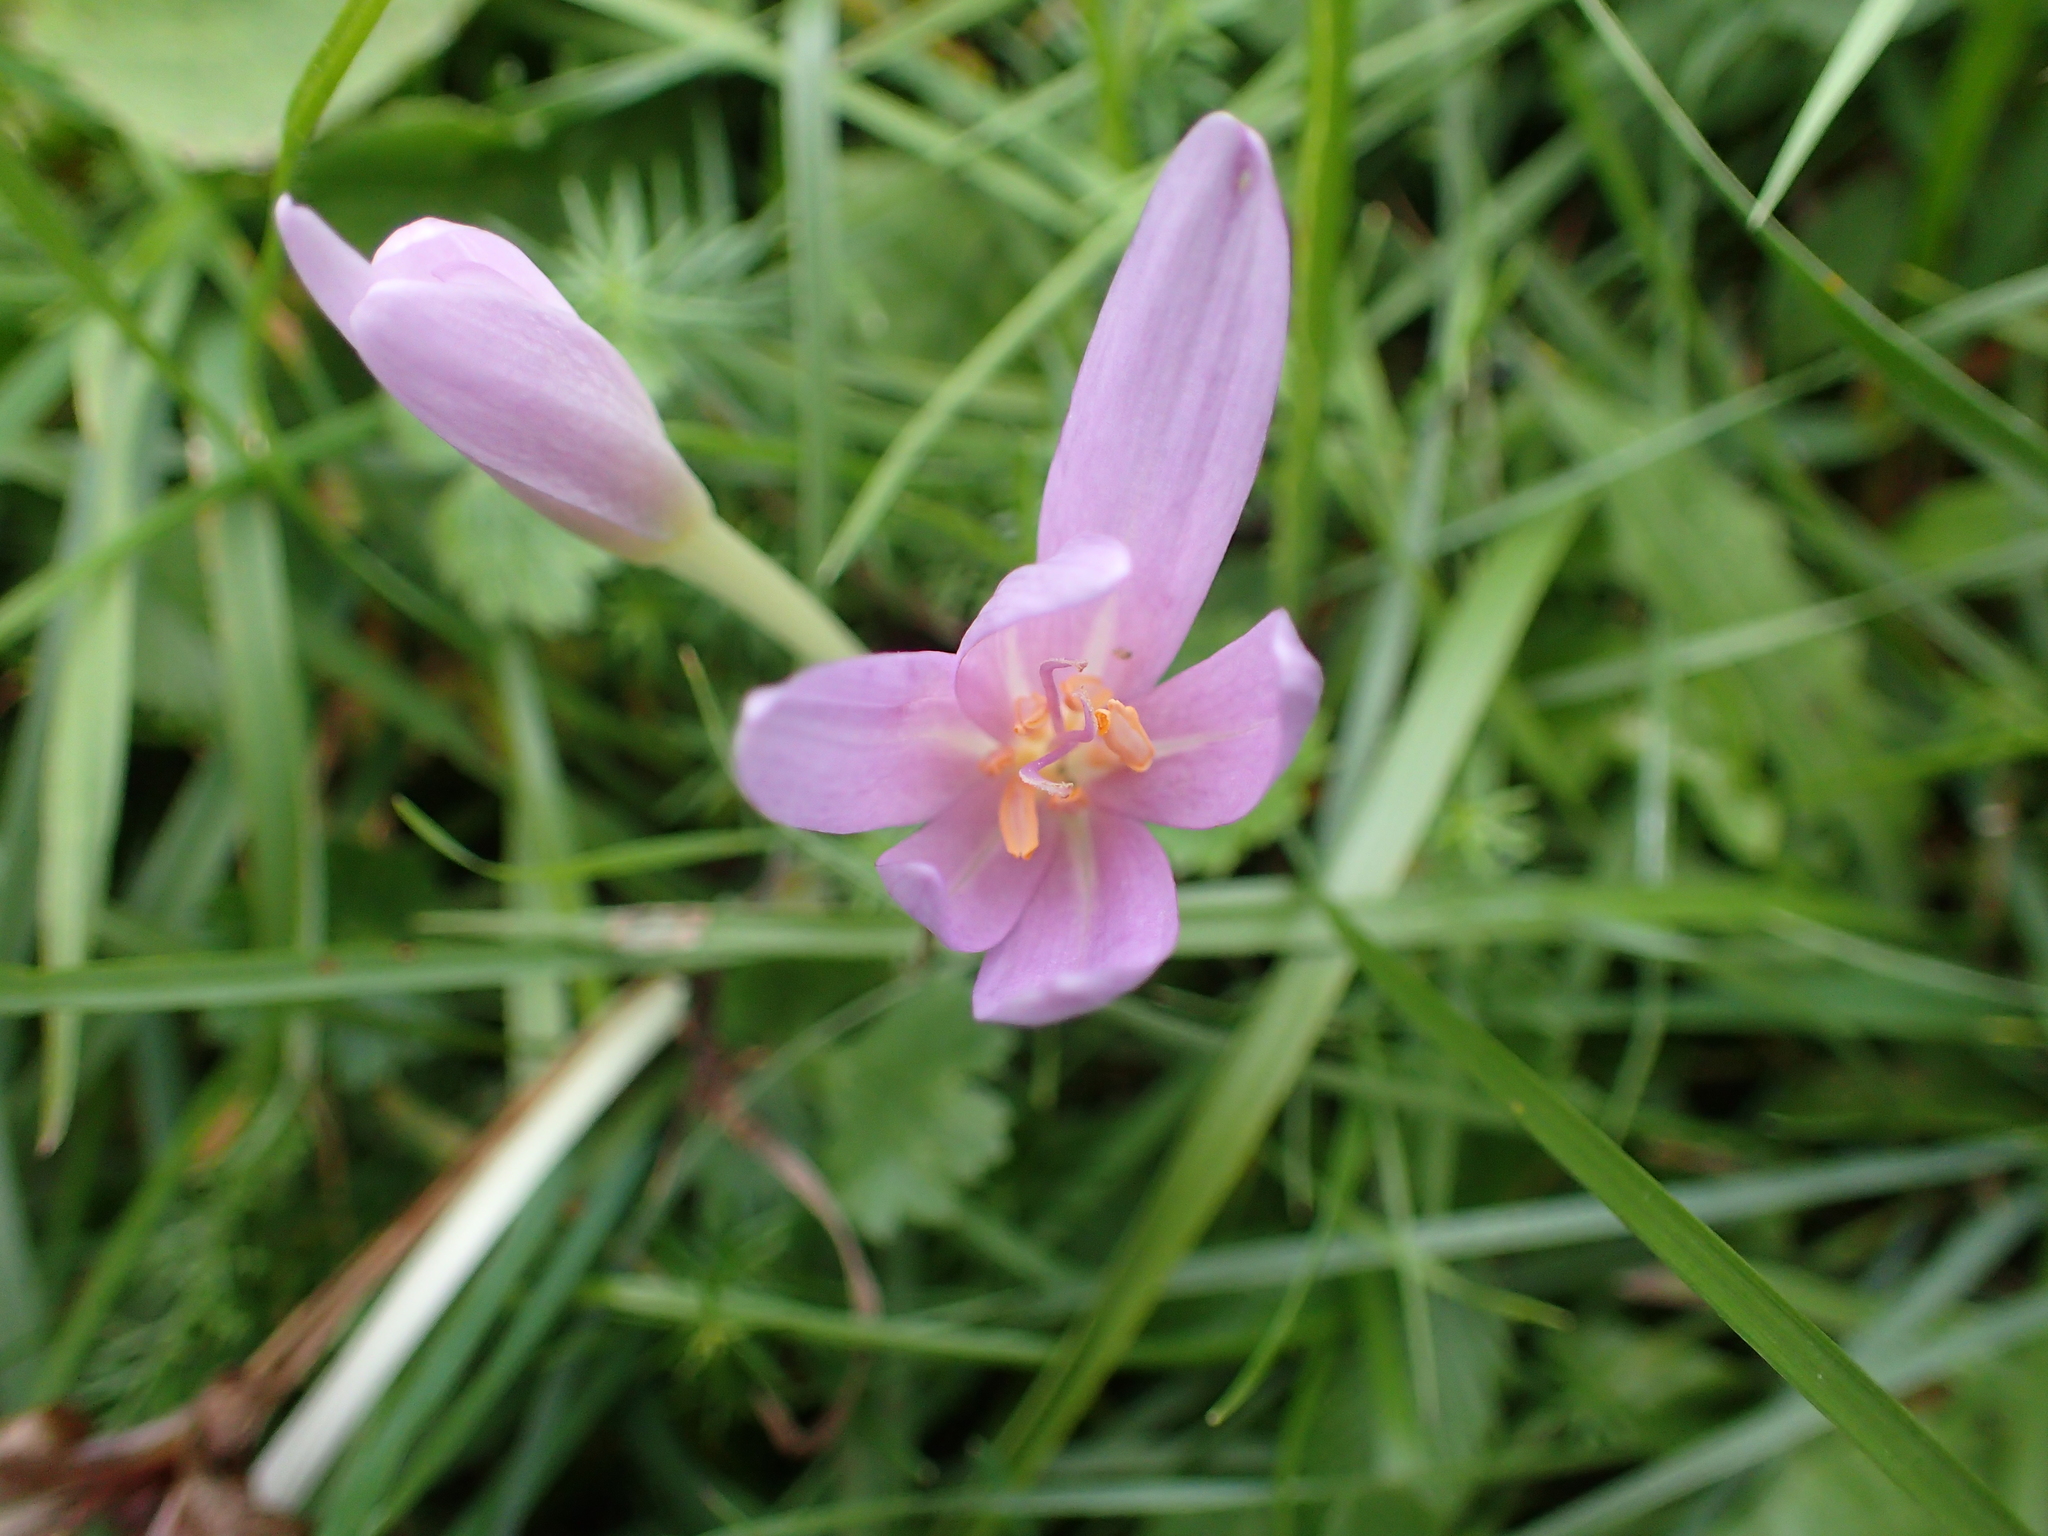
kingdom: Plantae
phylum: Tracheophyta
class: Liliopsida
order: Liliales
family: Colchicaceae
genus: Colchicum
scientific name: Colchicum autumnale
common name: Autumn crocus
